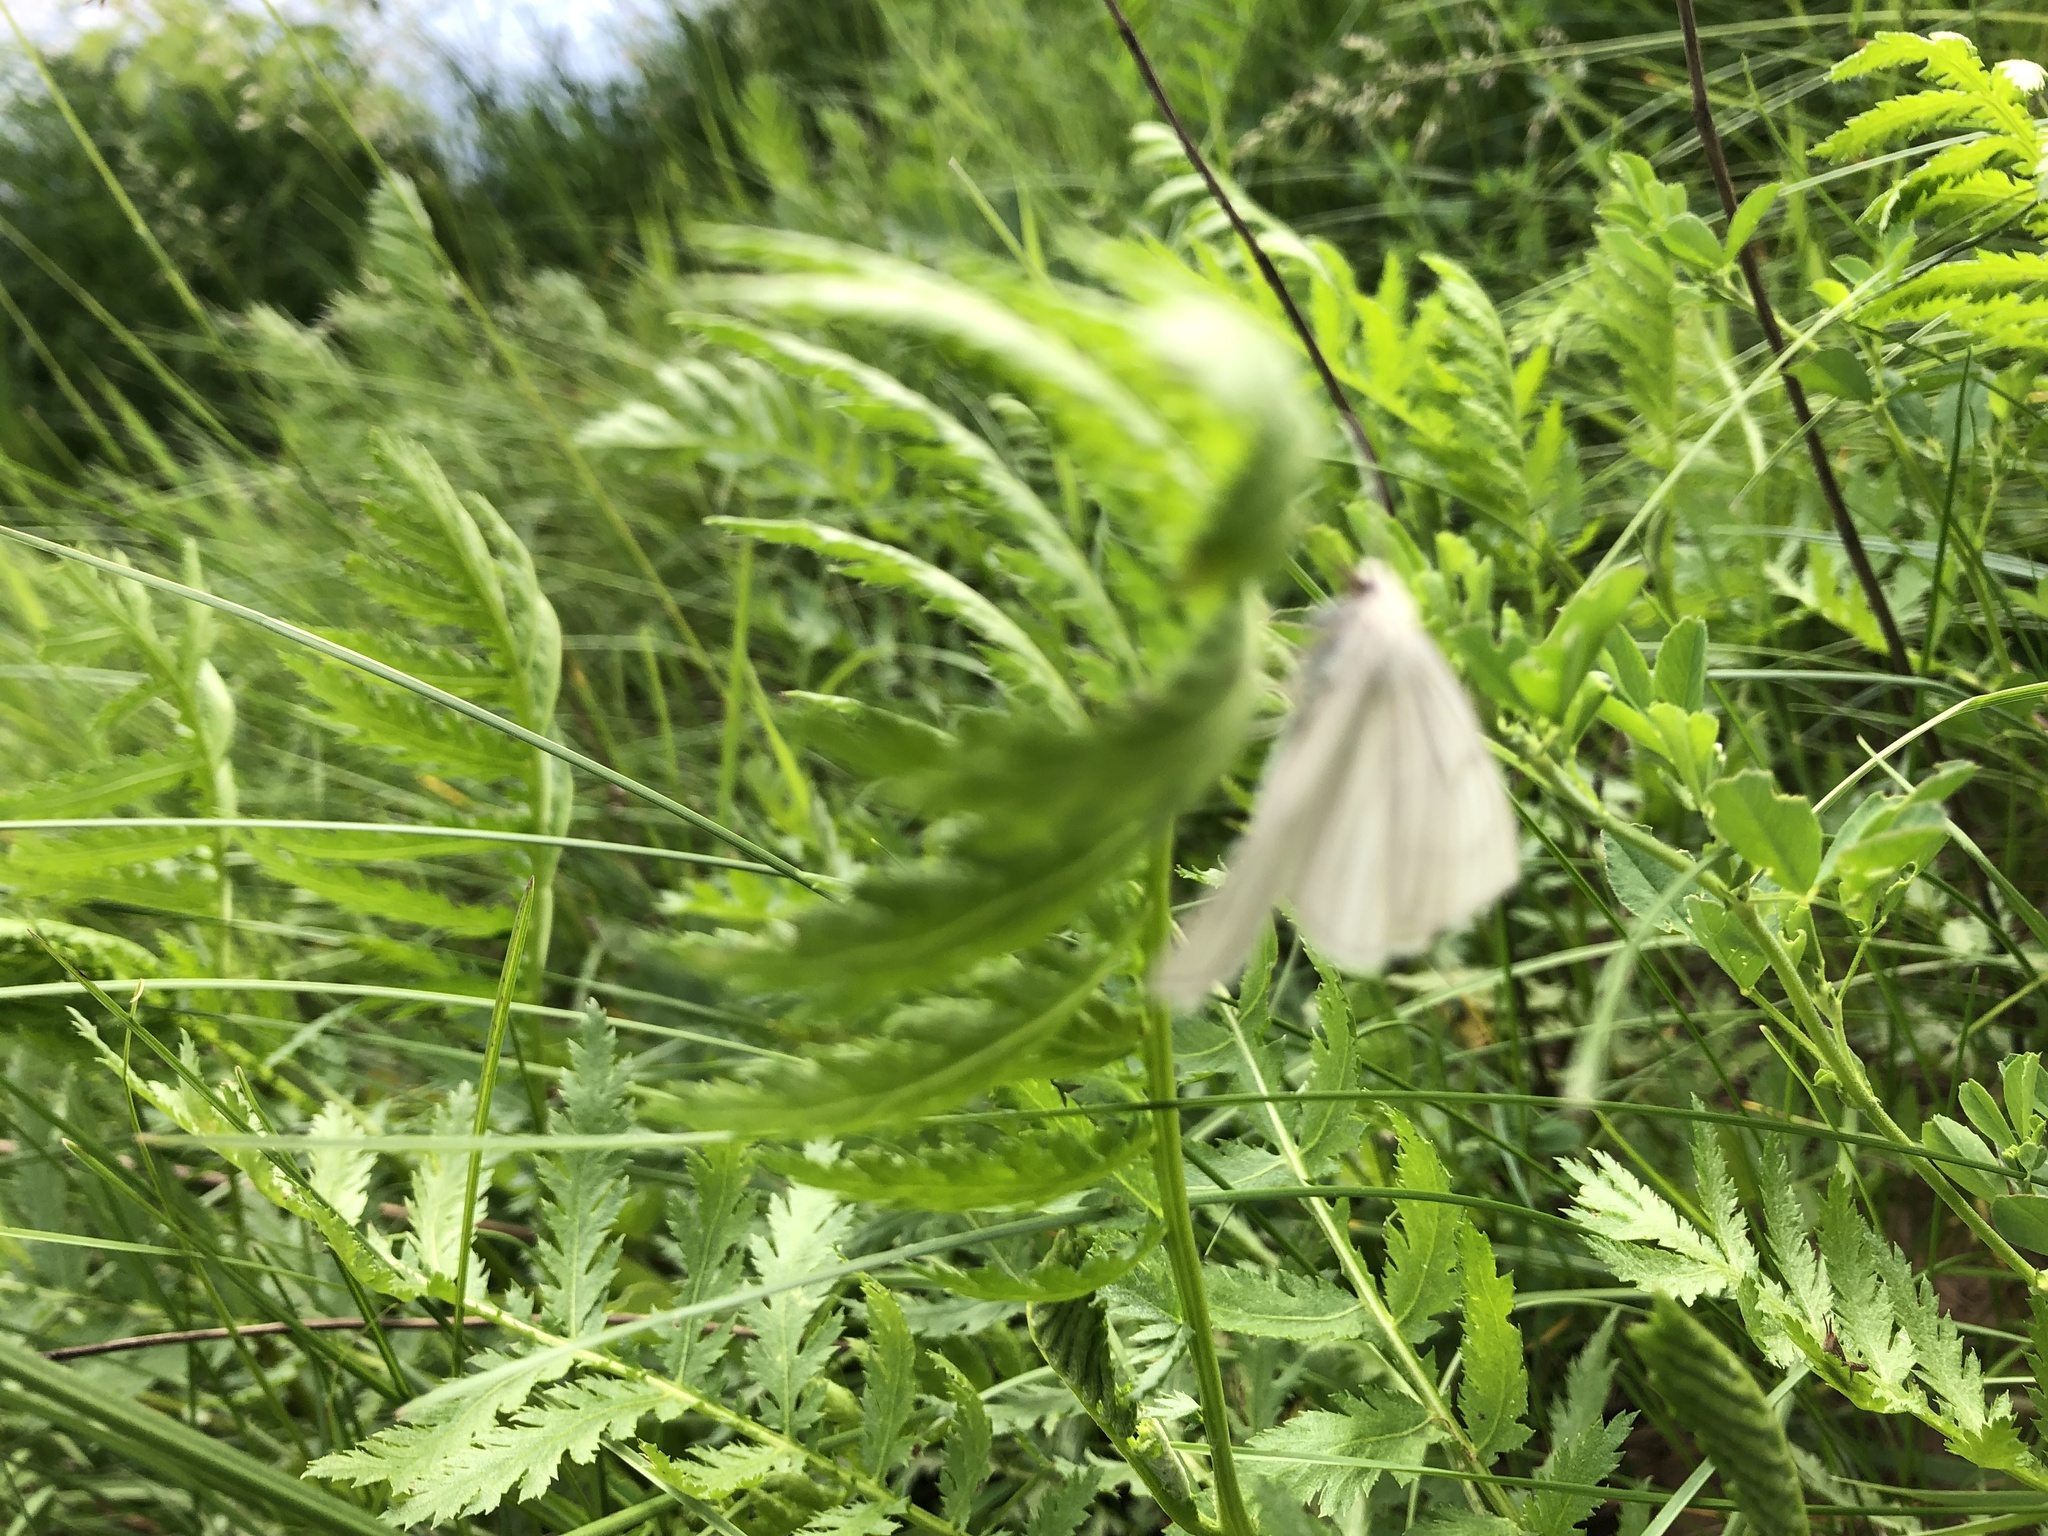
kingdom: Animalia
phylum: Arthropoda
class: Insecta
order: Lepidoptera
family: Geometridae
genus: Siona
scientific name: Siona lineata
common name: Black-veined moth
